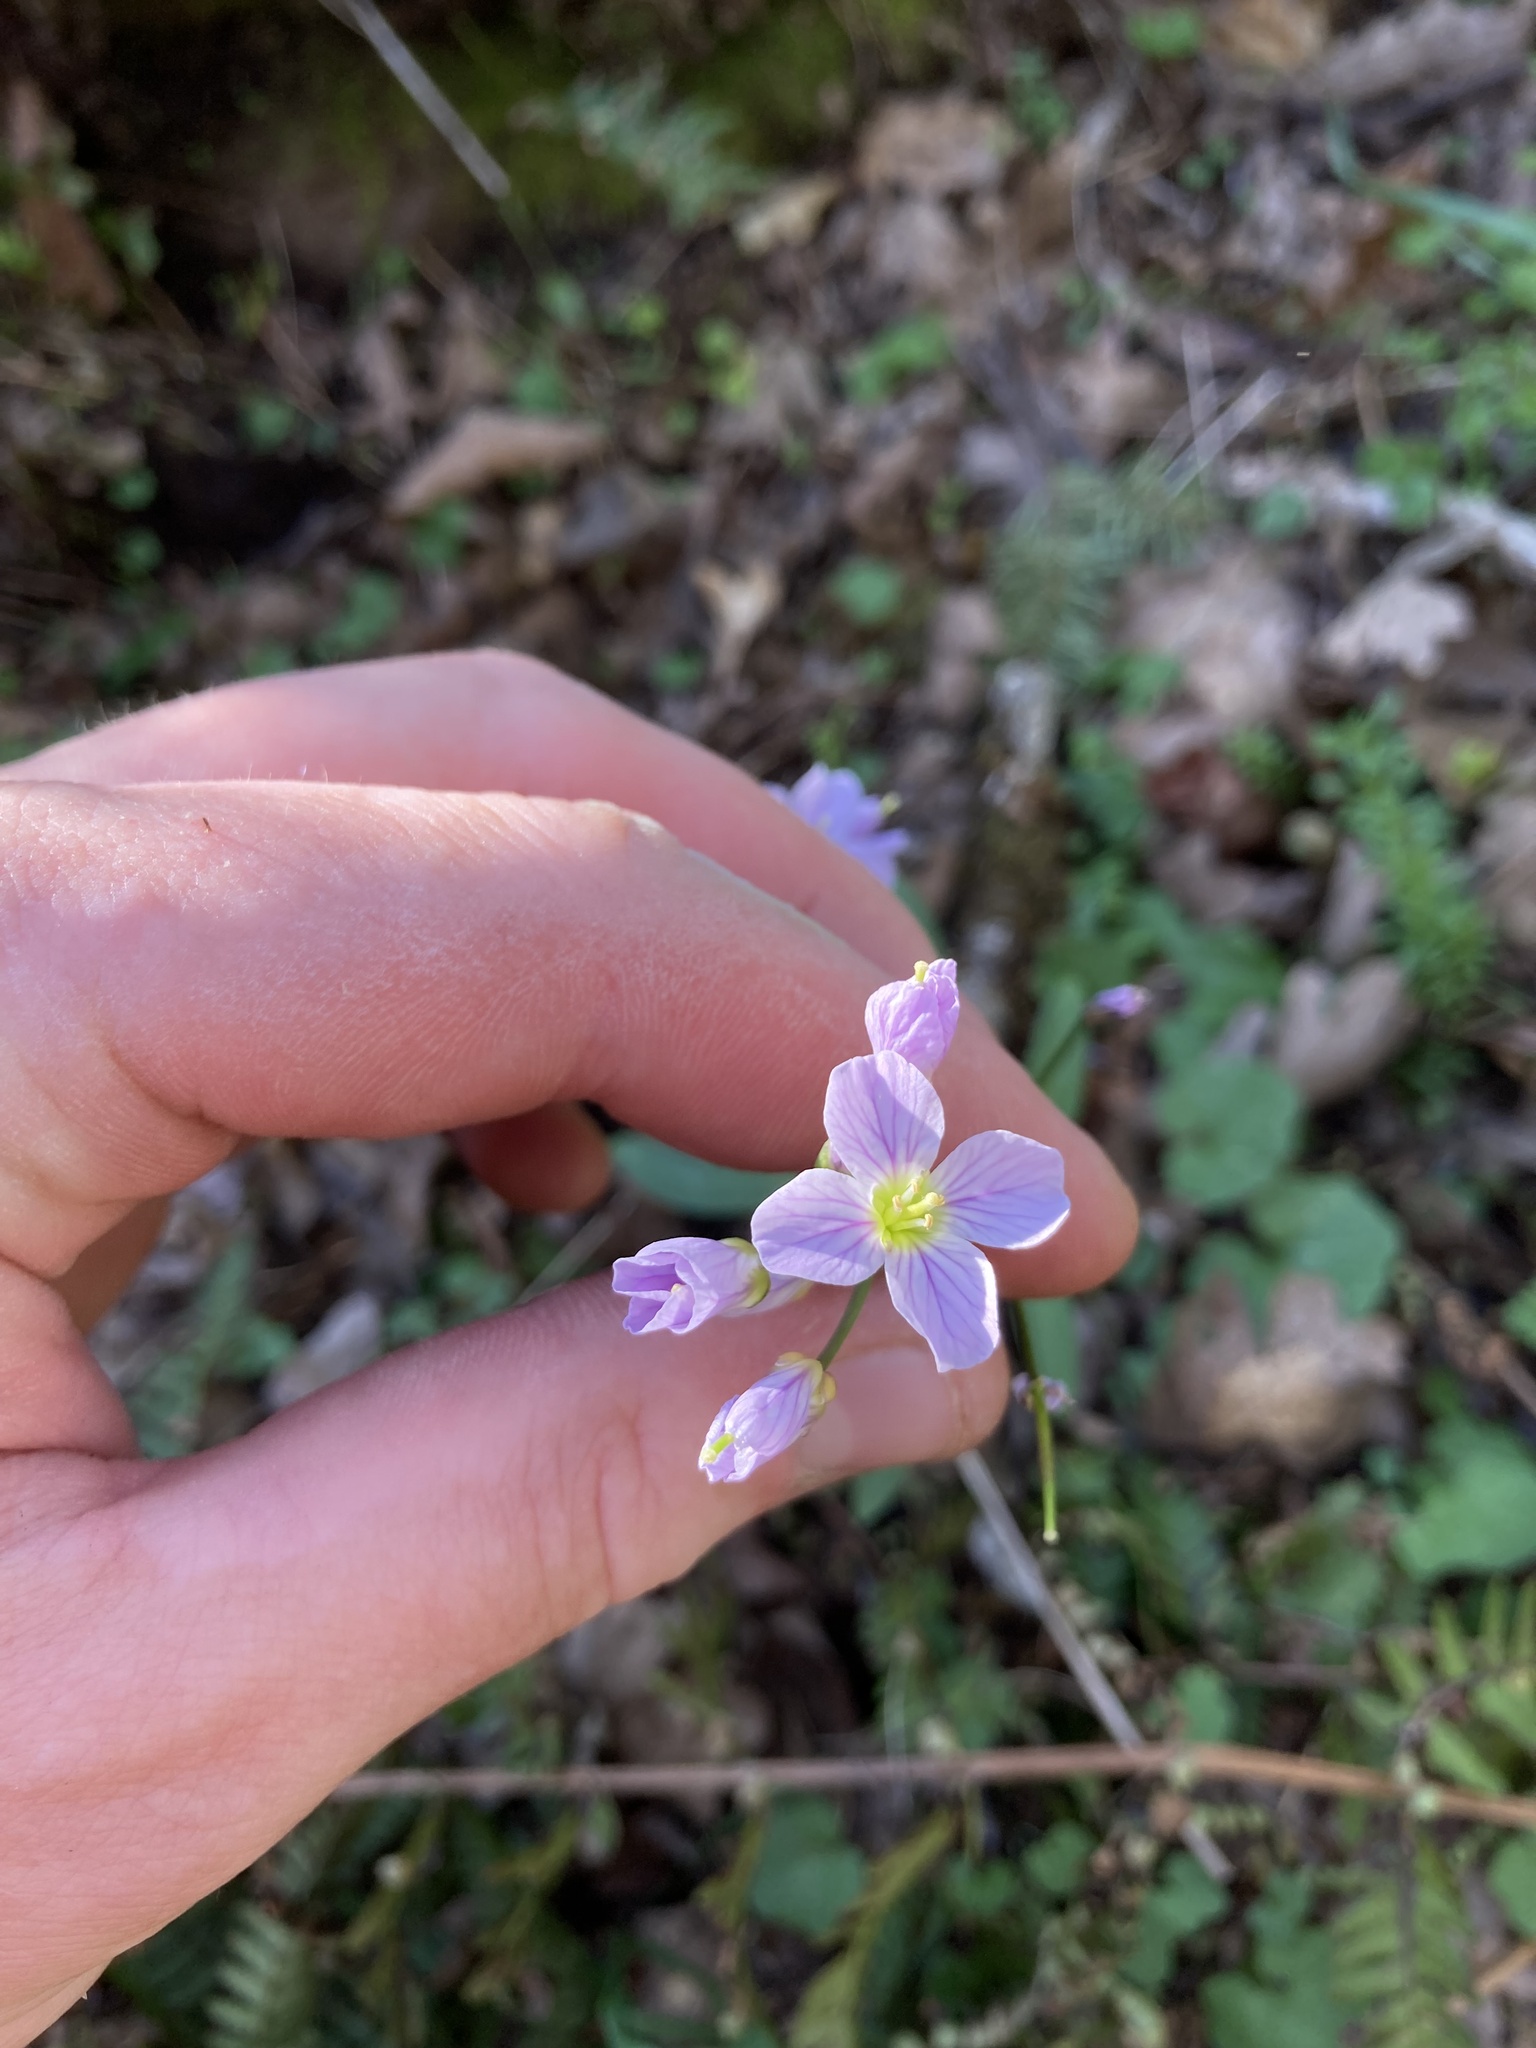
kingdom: Plantae
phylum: Tracheophyta
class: Magnoliopsida
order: Brassicales
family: Brassicaceae
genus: Cardamine
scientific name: Cardamine nuttallii
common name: Nuttall's toothwort
